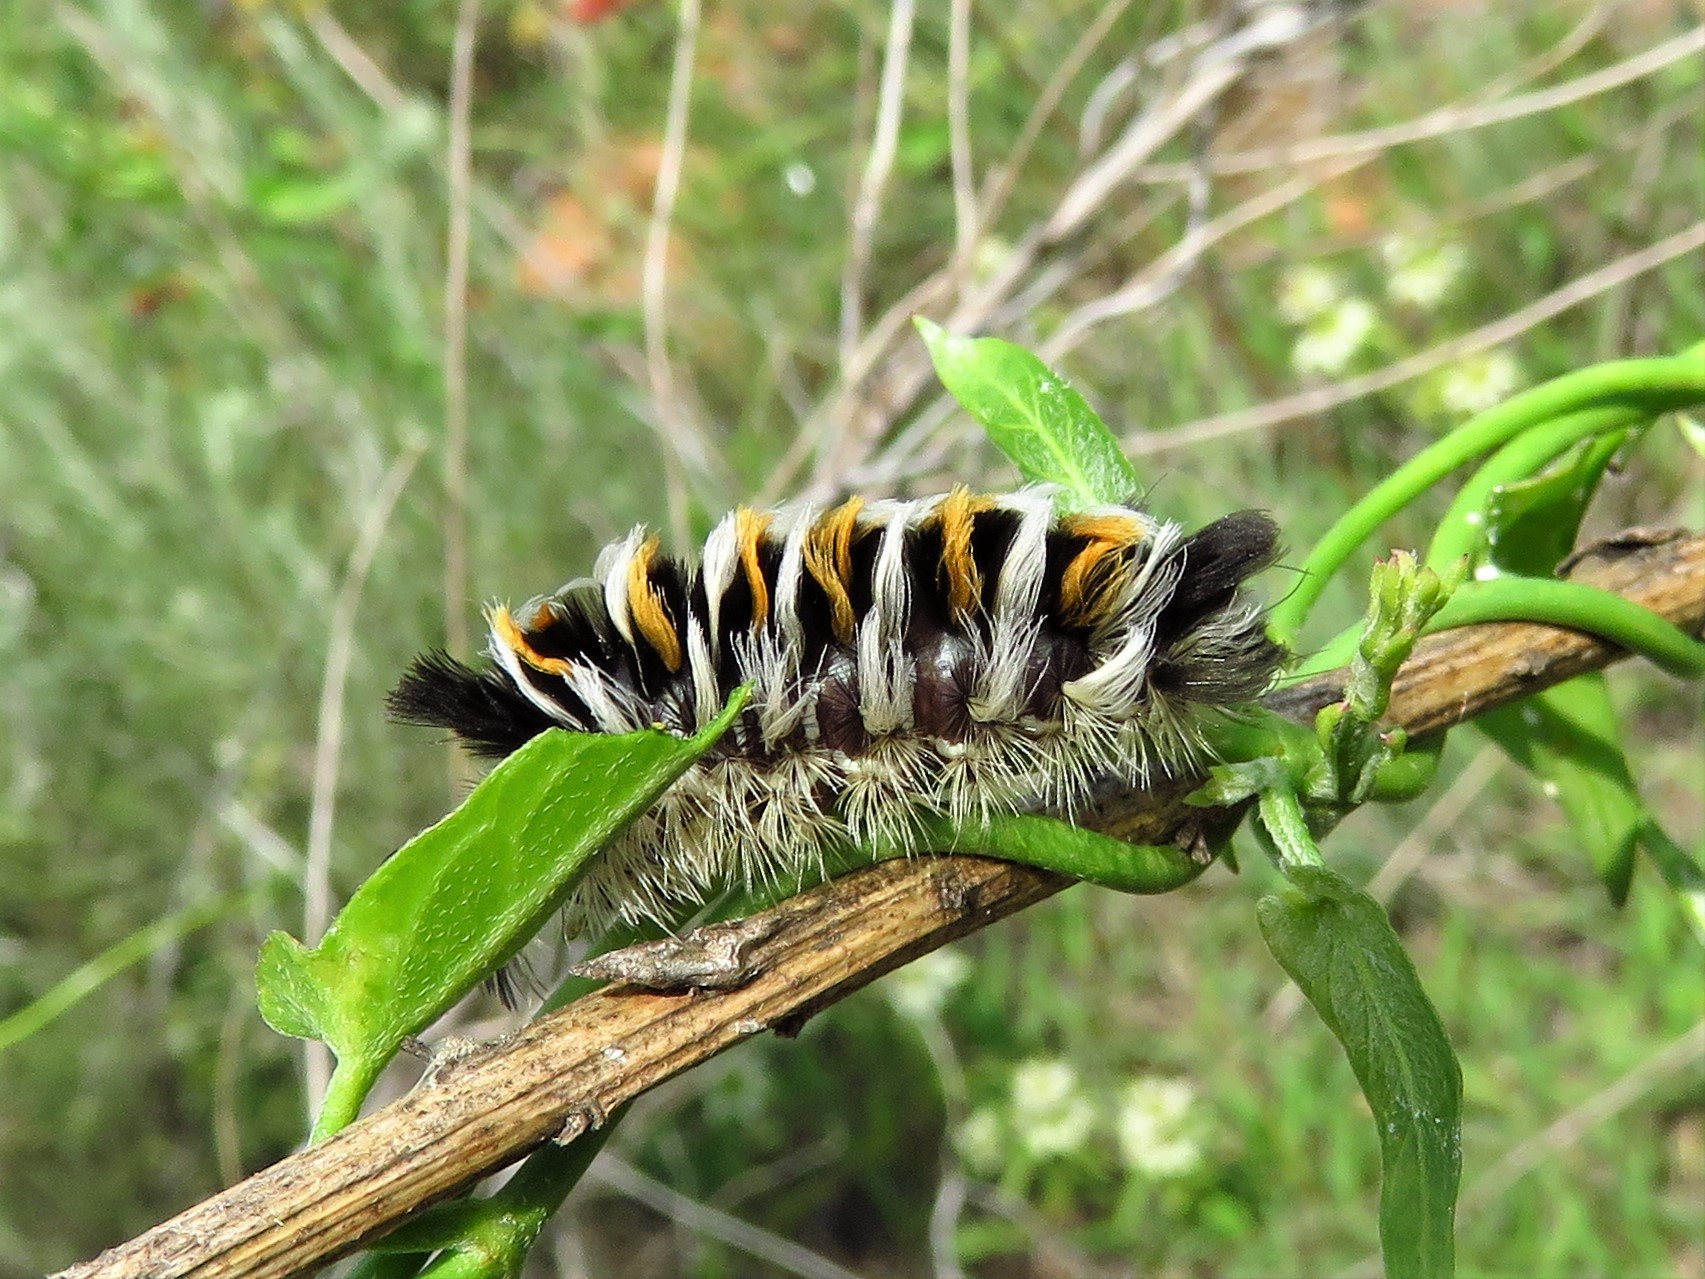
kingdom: Animalia
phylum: Arthropoda
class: Insecta
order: Lepidoptera
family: Erebidae
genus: Euchaetes
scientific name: Euchaetes
